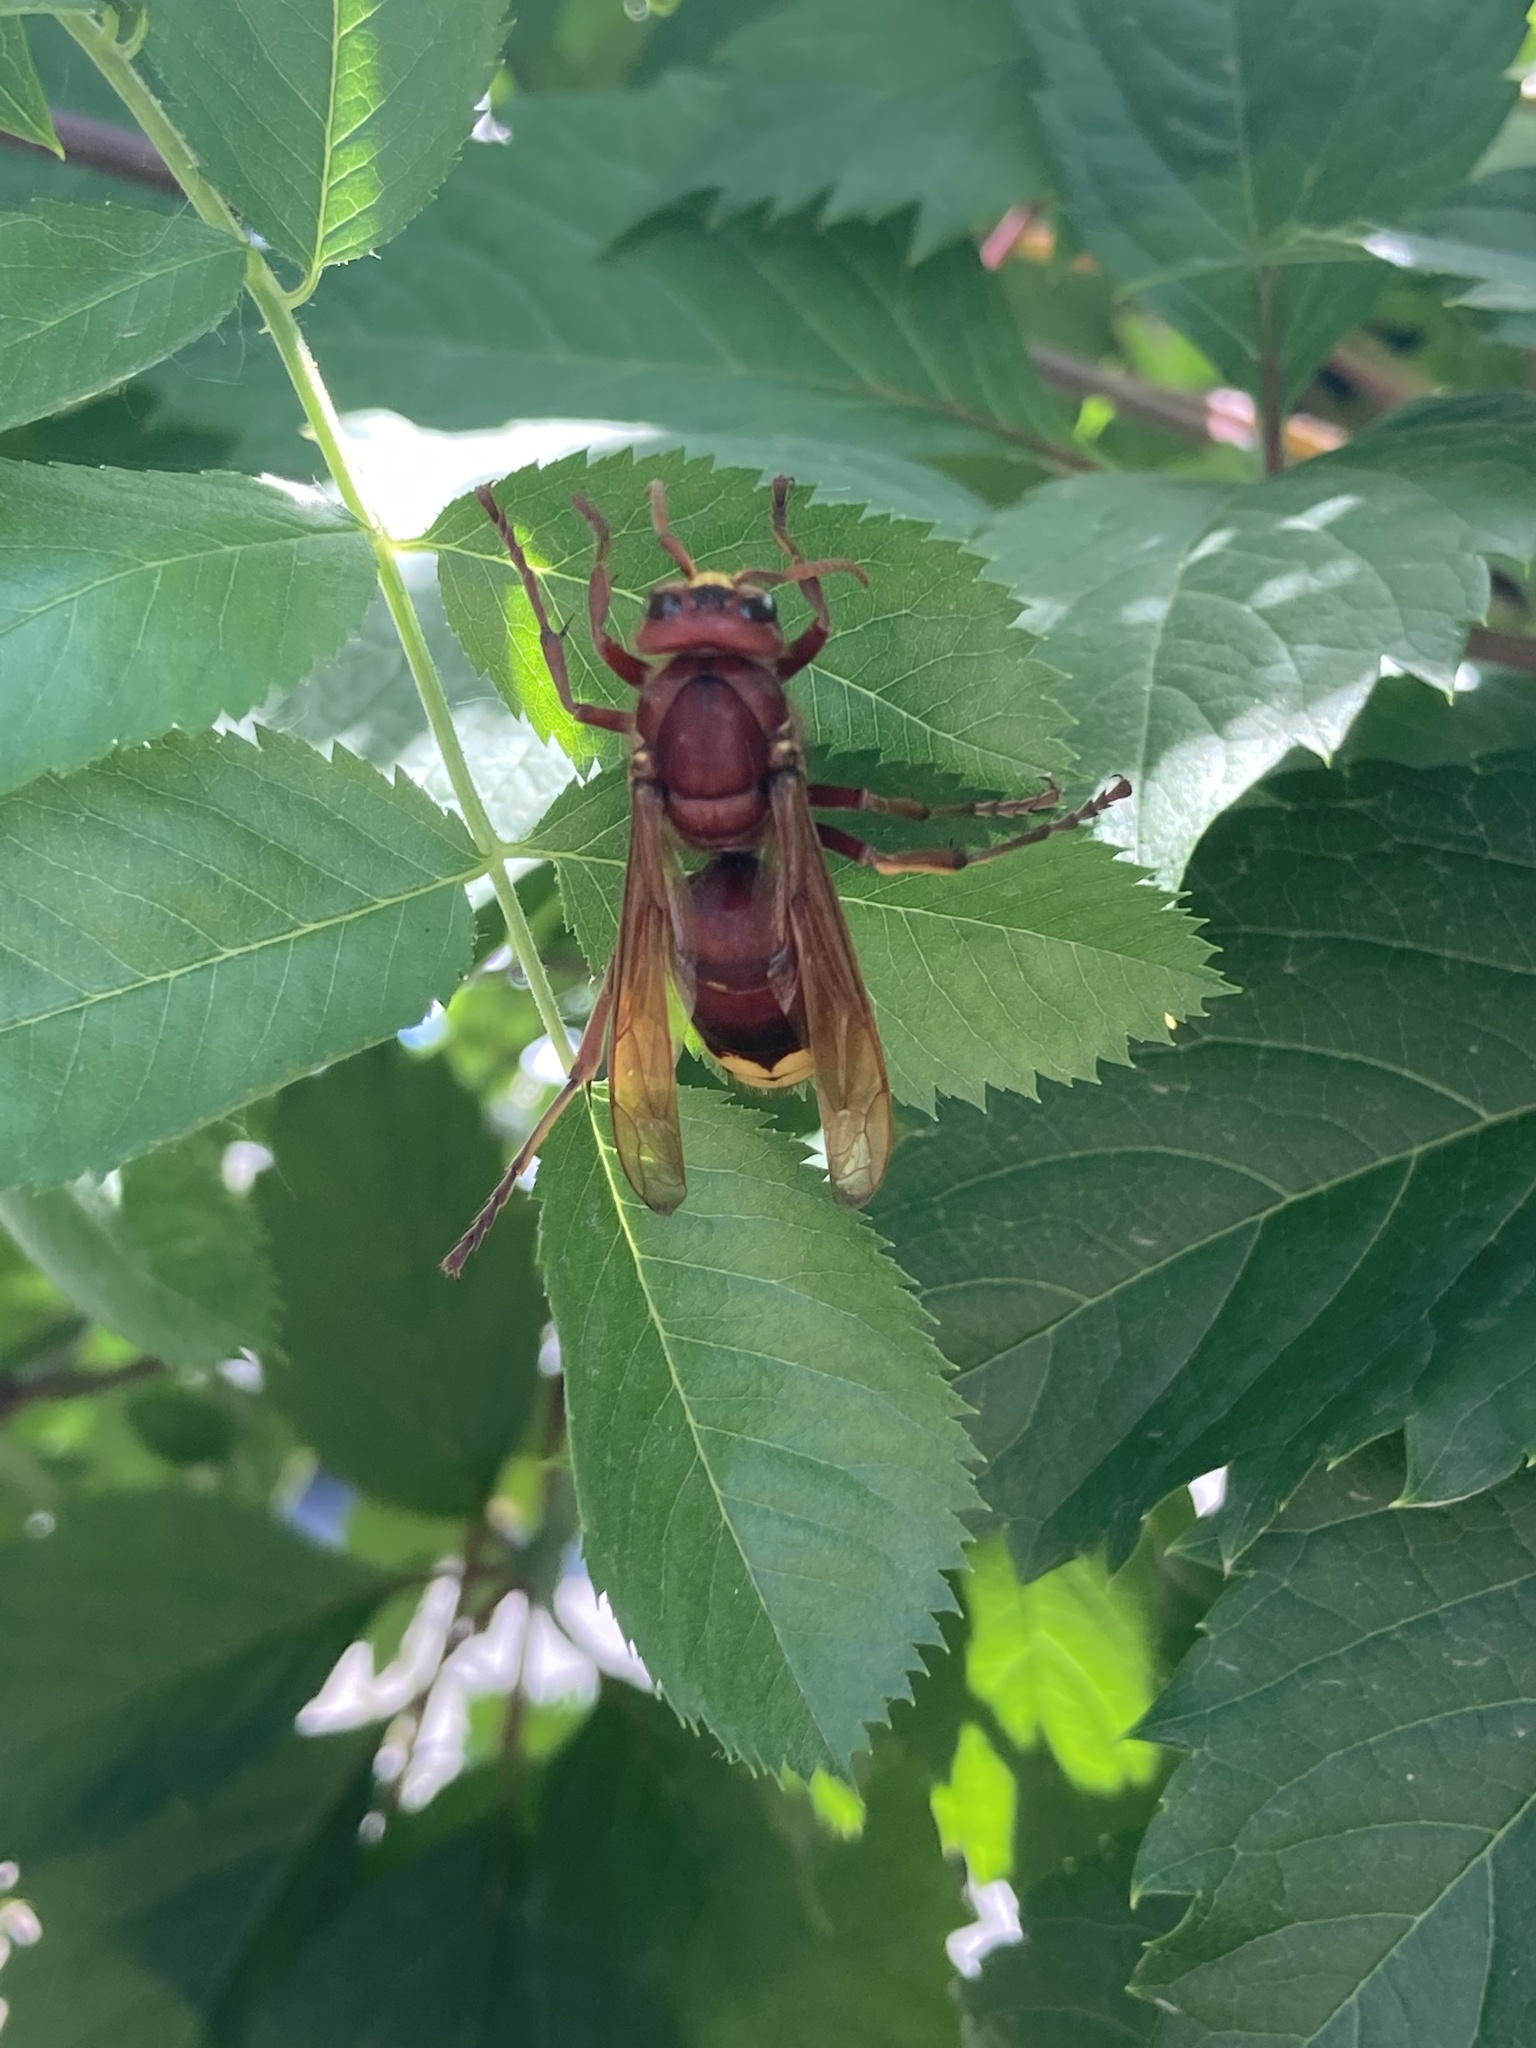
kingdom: Animalia
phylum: Arthropoda
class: Insecta
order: Hymenoptera
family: Vespidae
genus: Vespa
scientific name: Vespa orientalis
